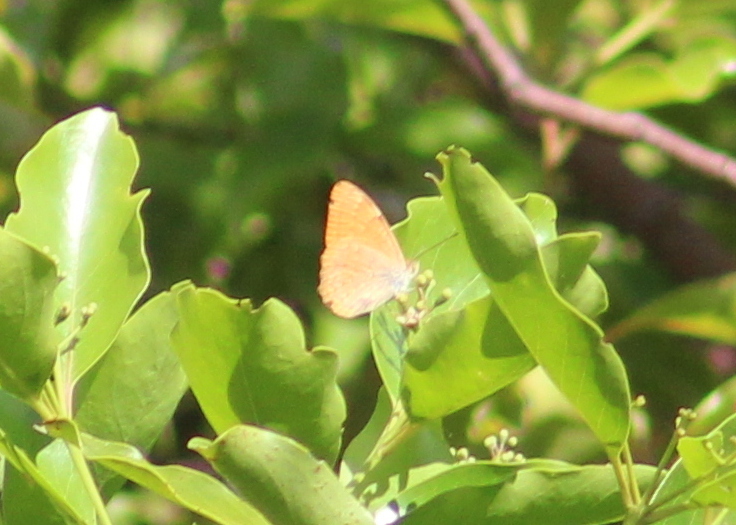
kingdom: Animalia
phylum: Arthropoda
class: Insecta
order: Lepidoptera
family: Nymphalidae
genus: Phalanta
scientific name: Phalanta gabertii
